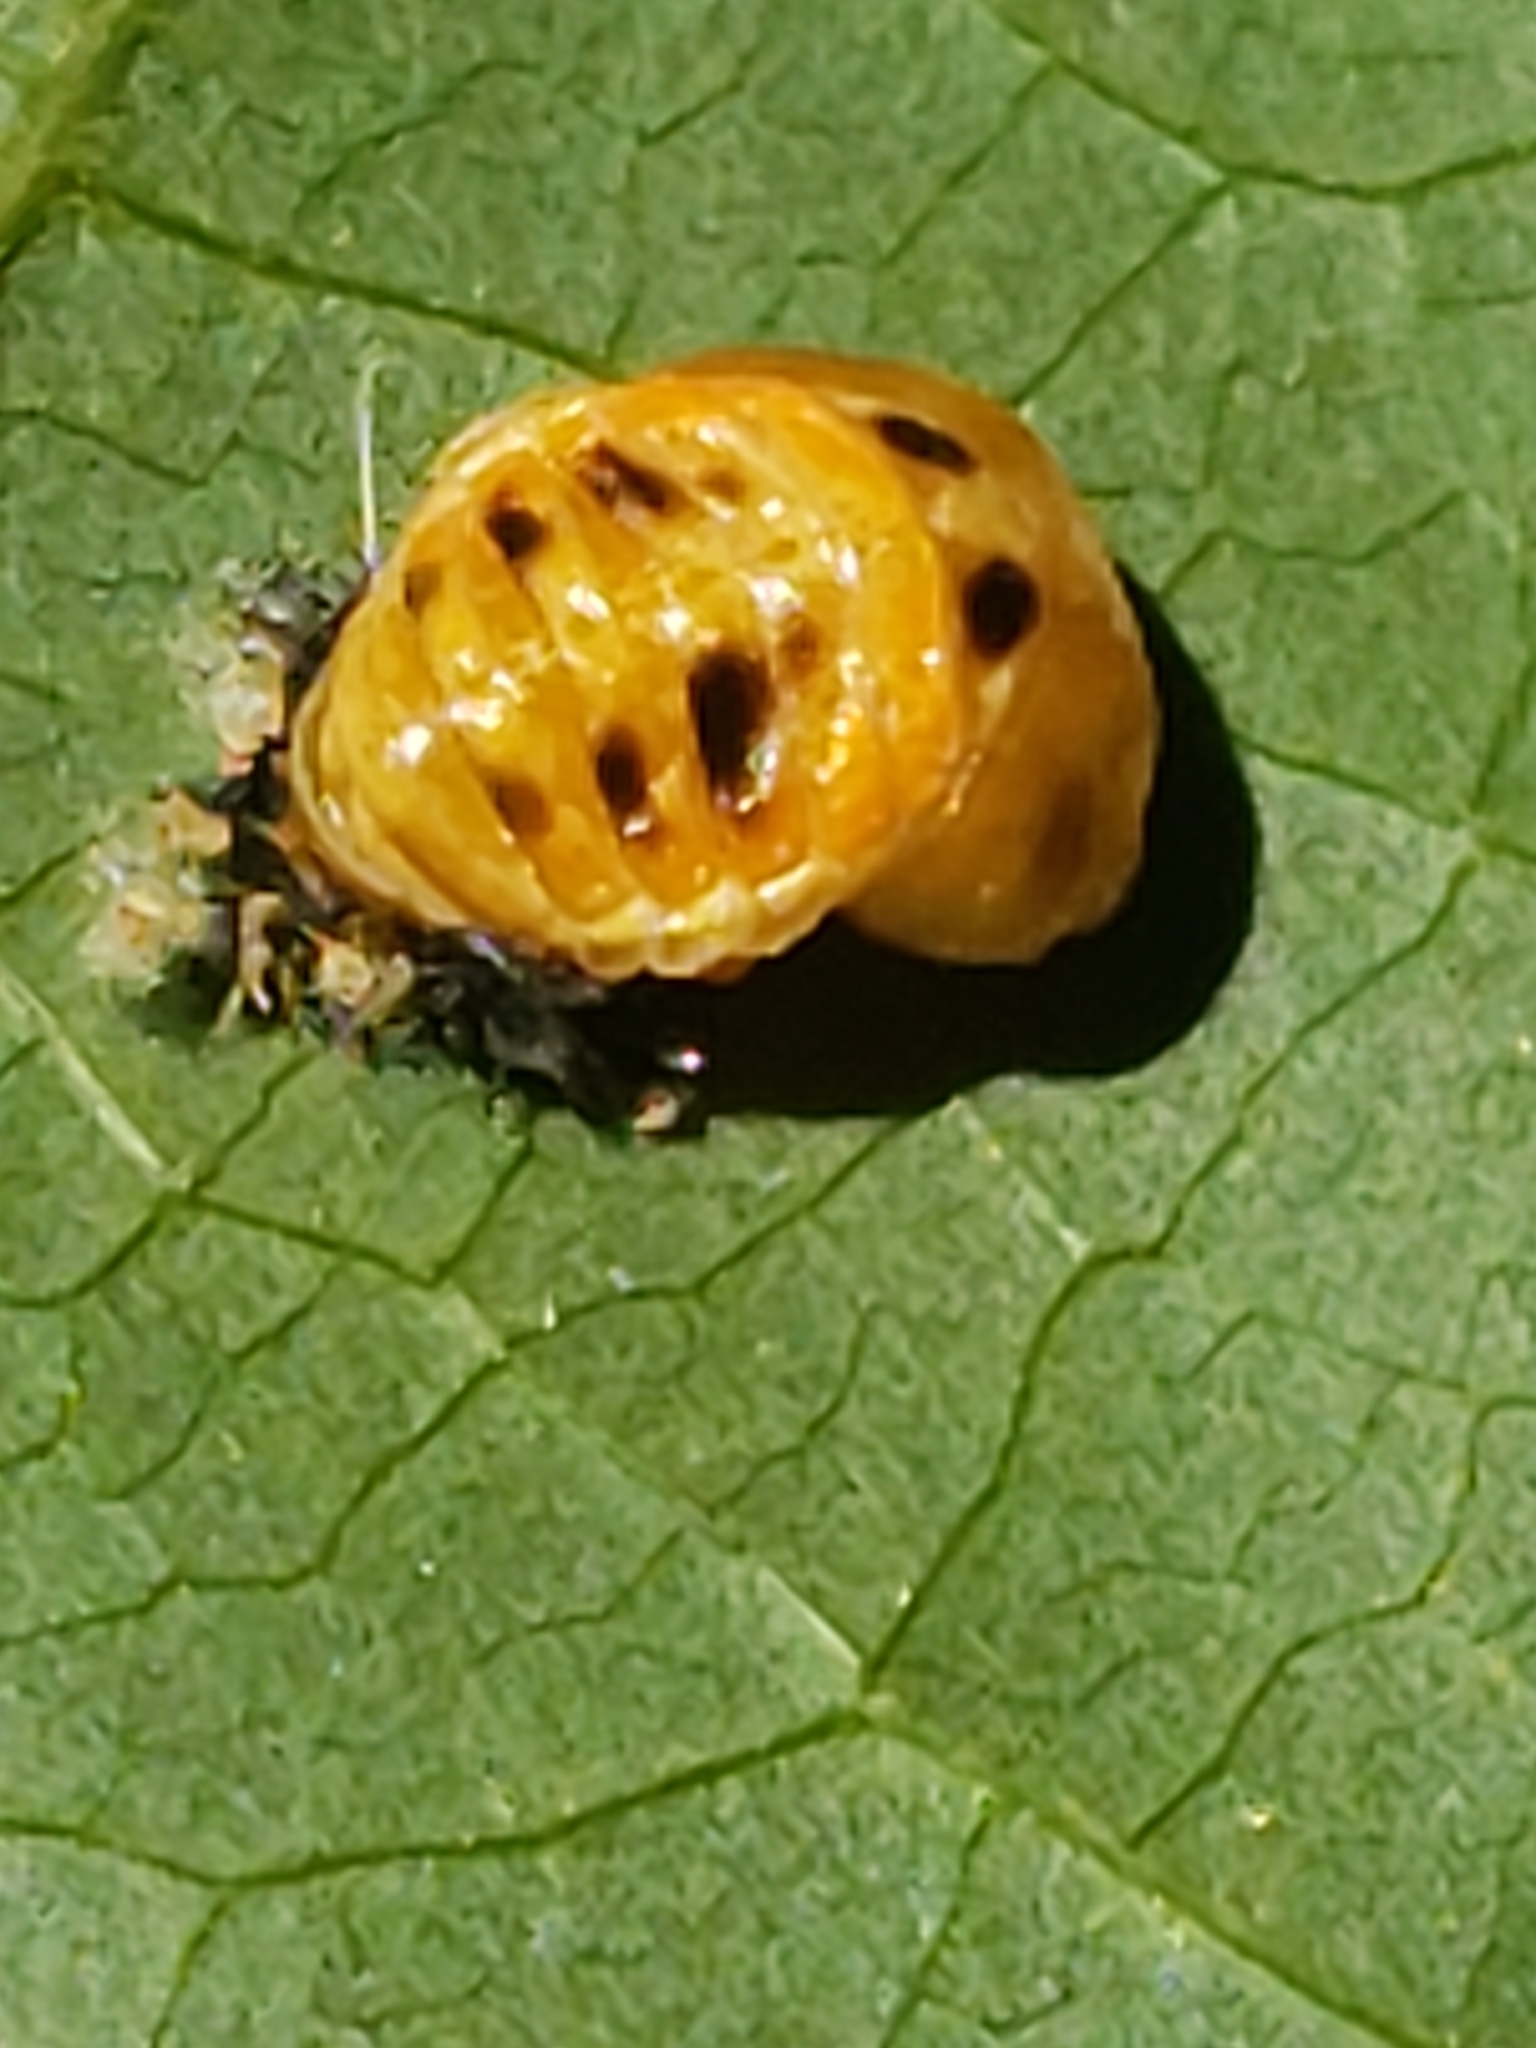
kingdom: Animalia
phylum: Arthropoda
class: Insecta
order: Coleoptera
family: Coccinellidae
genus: Harmonia
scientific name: Harmonia axyridis
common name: Harlequin ladybird
